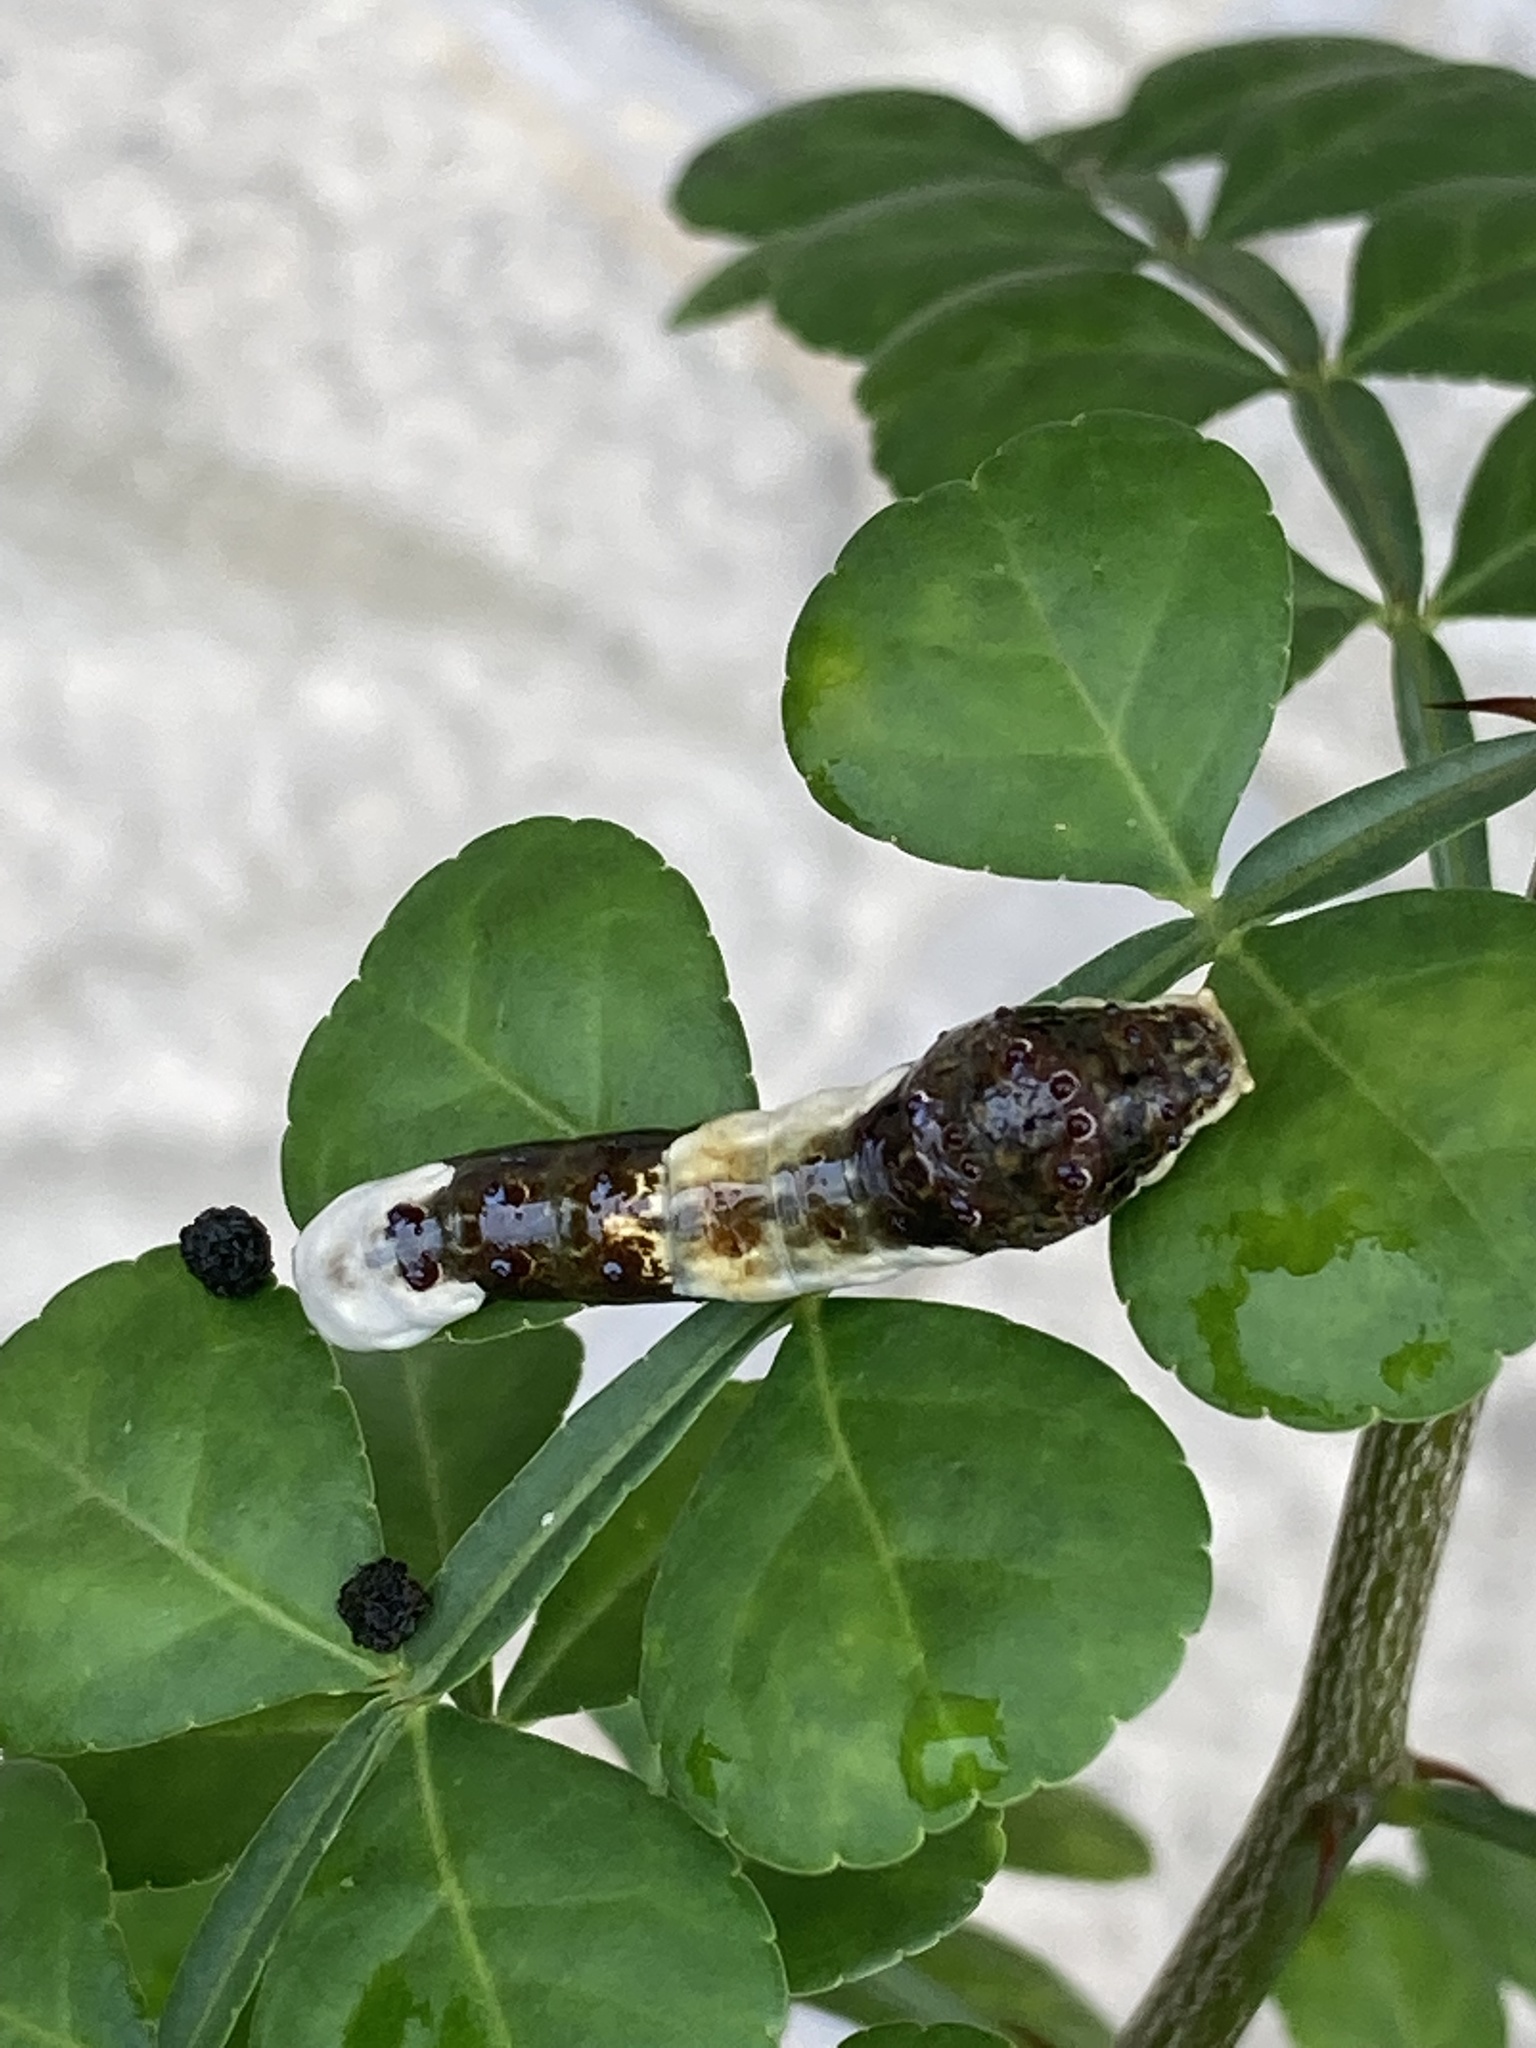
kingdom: Animalia
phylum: Arthropoda
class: Insecta
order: Lepidoptera
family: Papilionidae
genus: Papilio
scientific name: Papilio cresphontes
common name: Giant swallowtail
